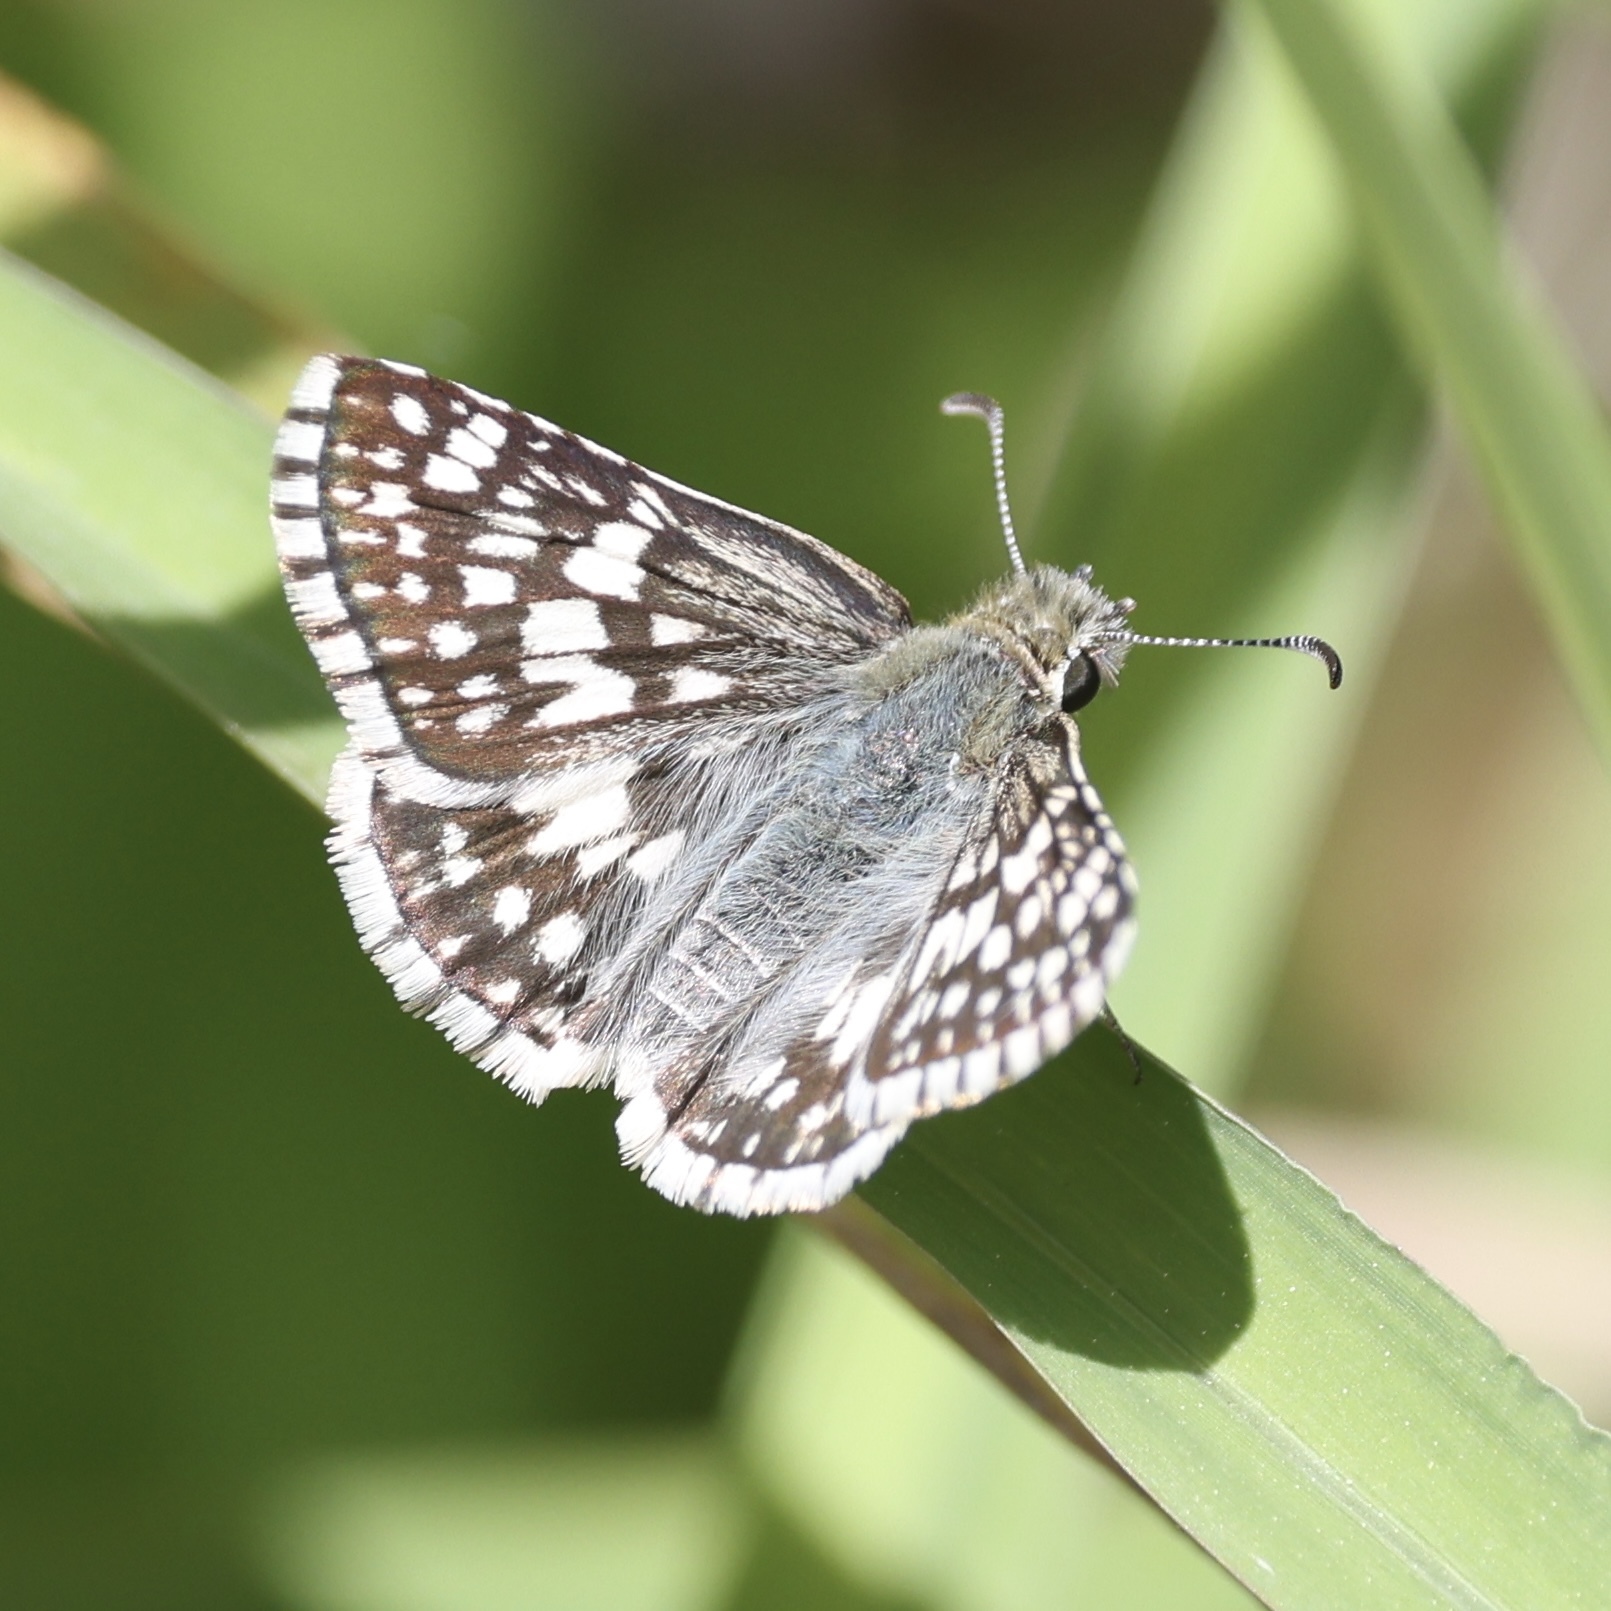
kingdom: Animalia
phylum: Arthropoda
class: Insecta
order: Lepidoptera
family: Hesperiidae
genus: Burnsius
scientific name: Burnsius albezens
